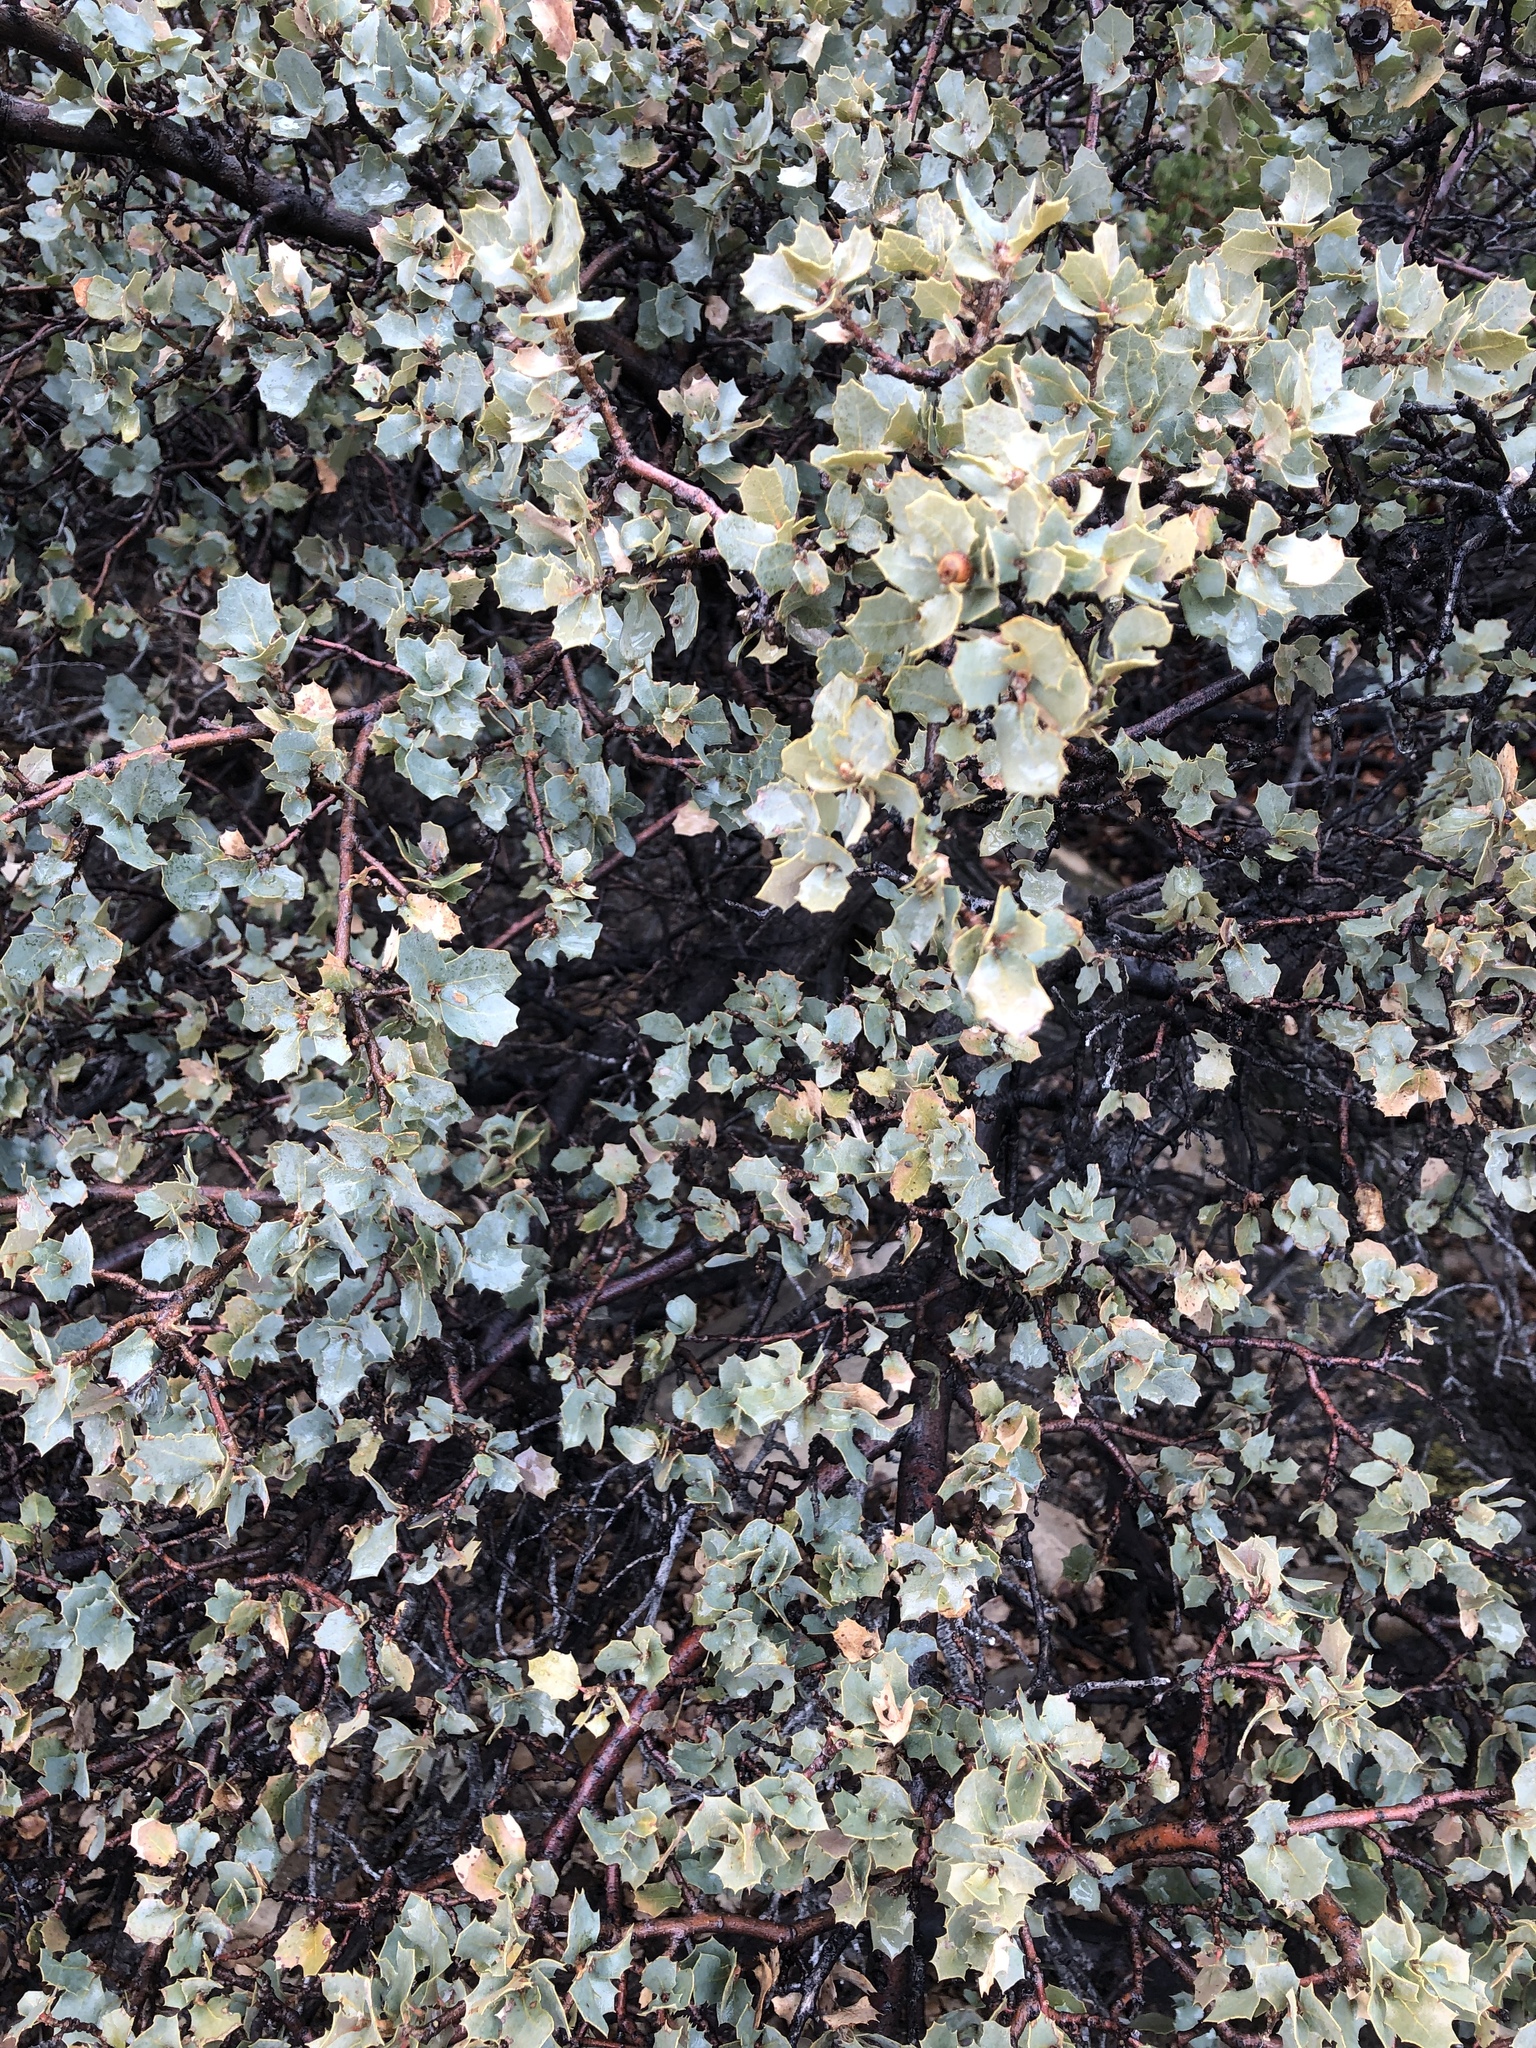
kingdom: Plantae
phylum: Tracheophyta
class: Magnoliopsida
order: Fagales
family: Fagaceae
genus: Quercus
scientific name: Quercus turbinella
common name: Sonoran scrub oak
